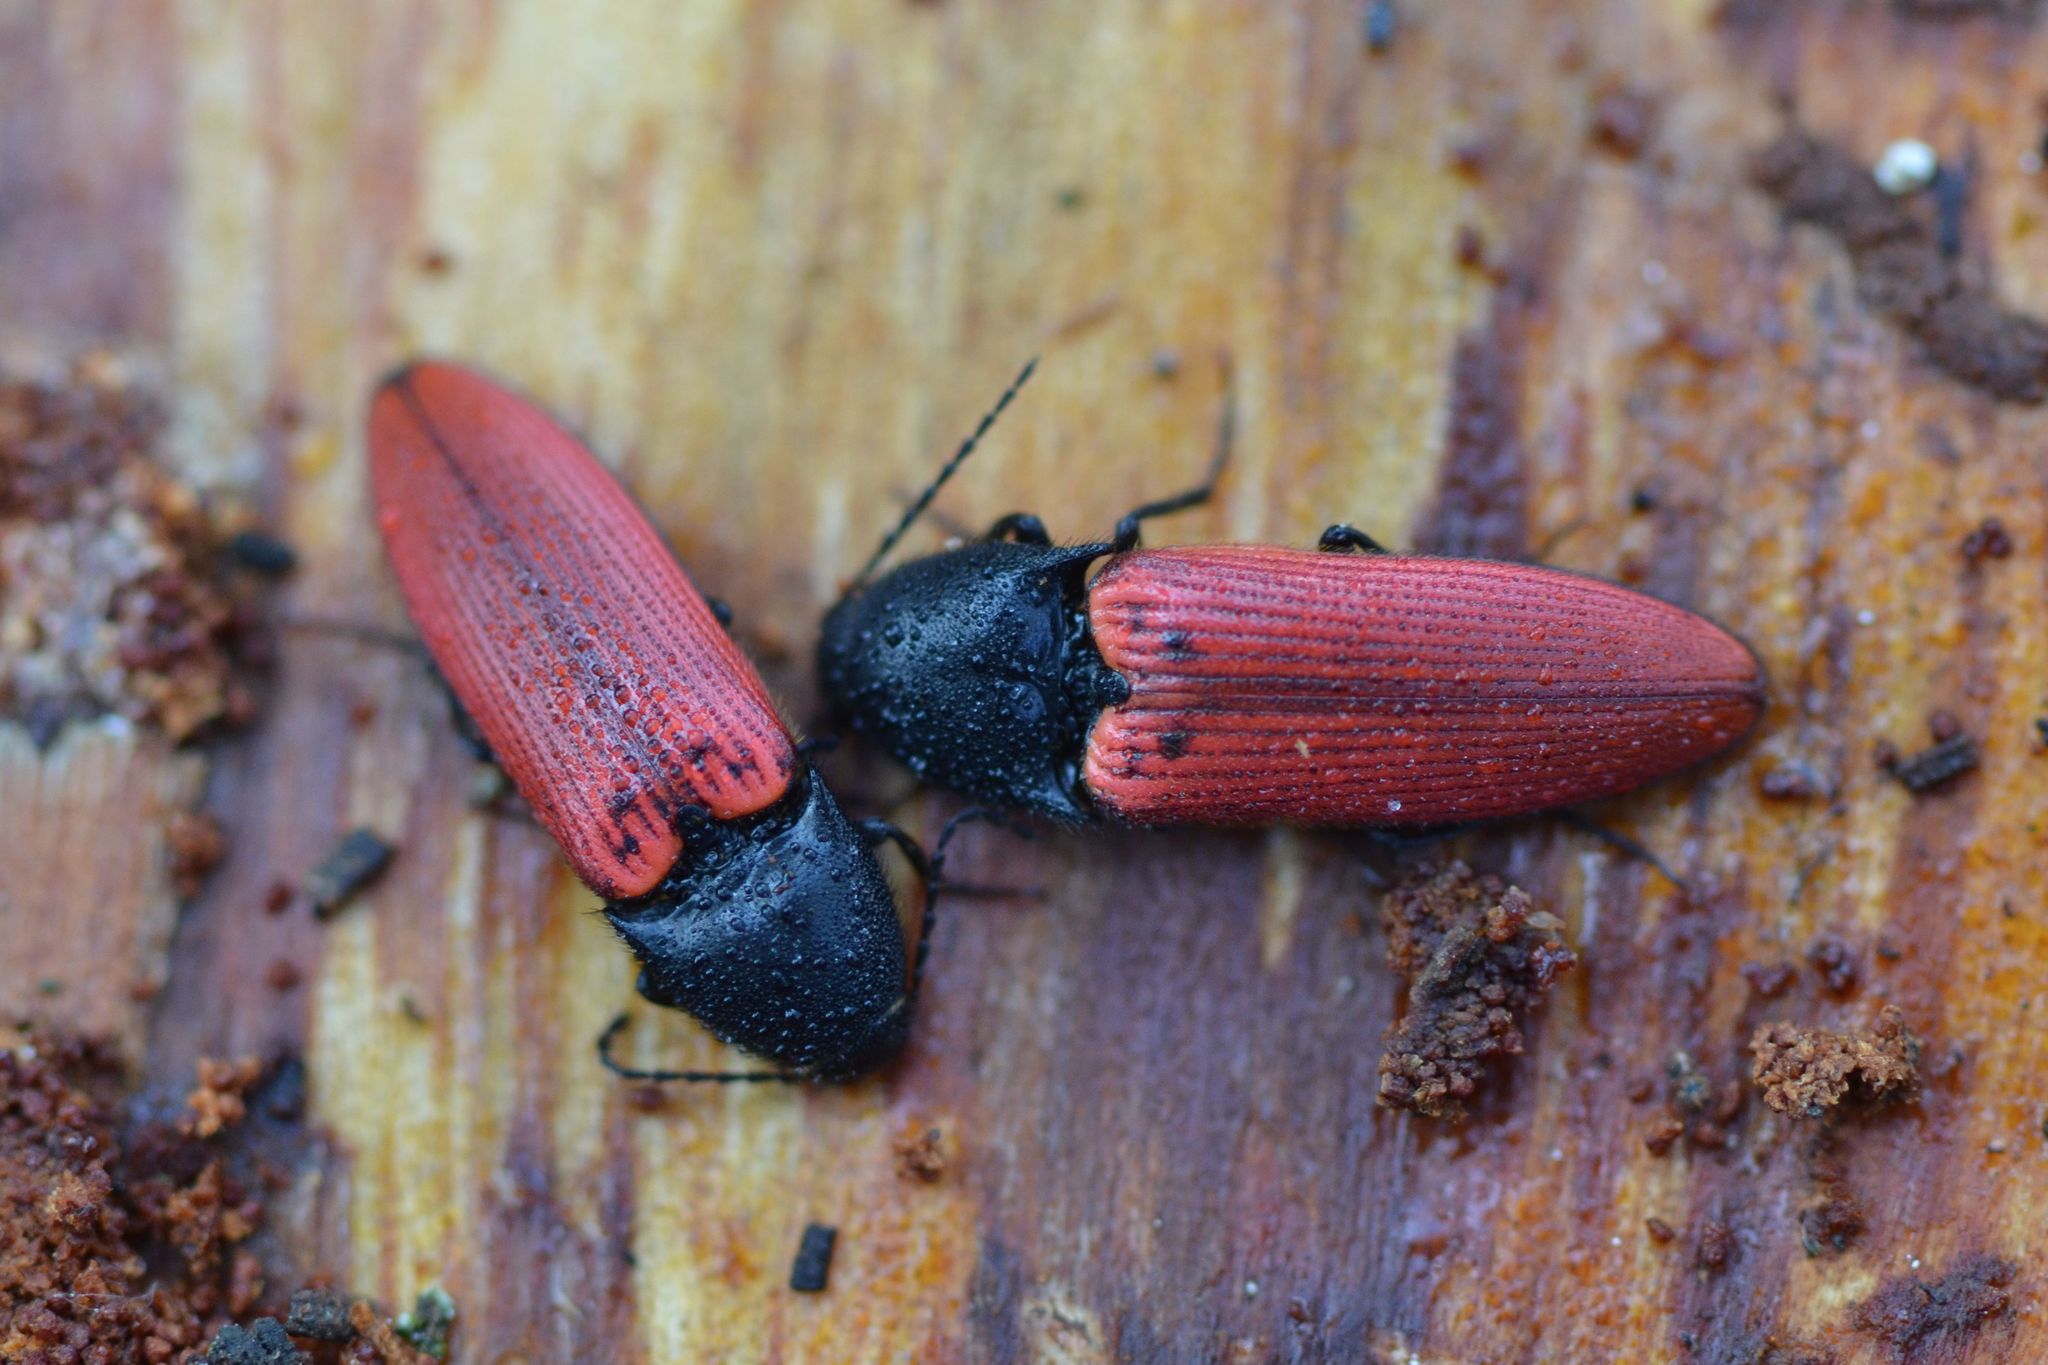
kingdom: Animalia
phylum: Arthropoda
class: Insecta
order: Coleoptera
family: Elateridae
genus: Ampedus
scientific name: Ampedus sanguineus
